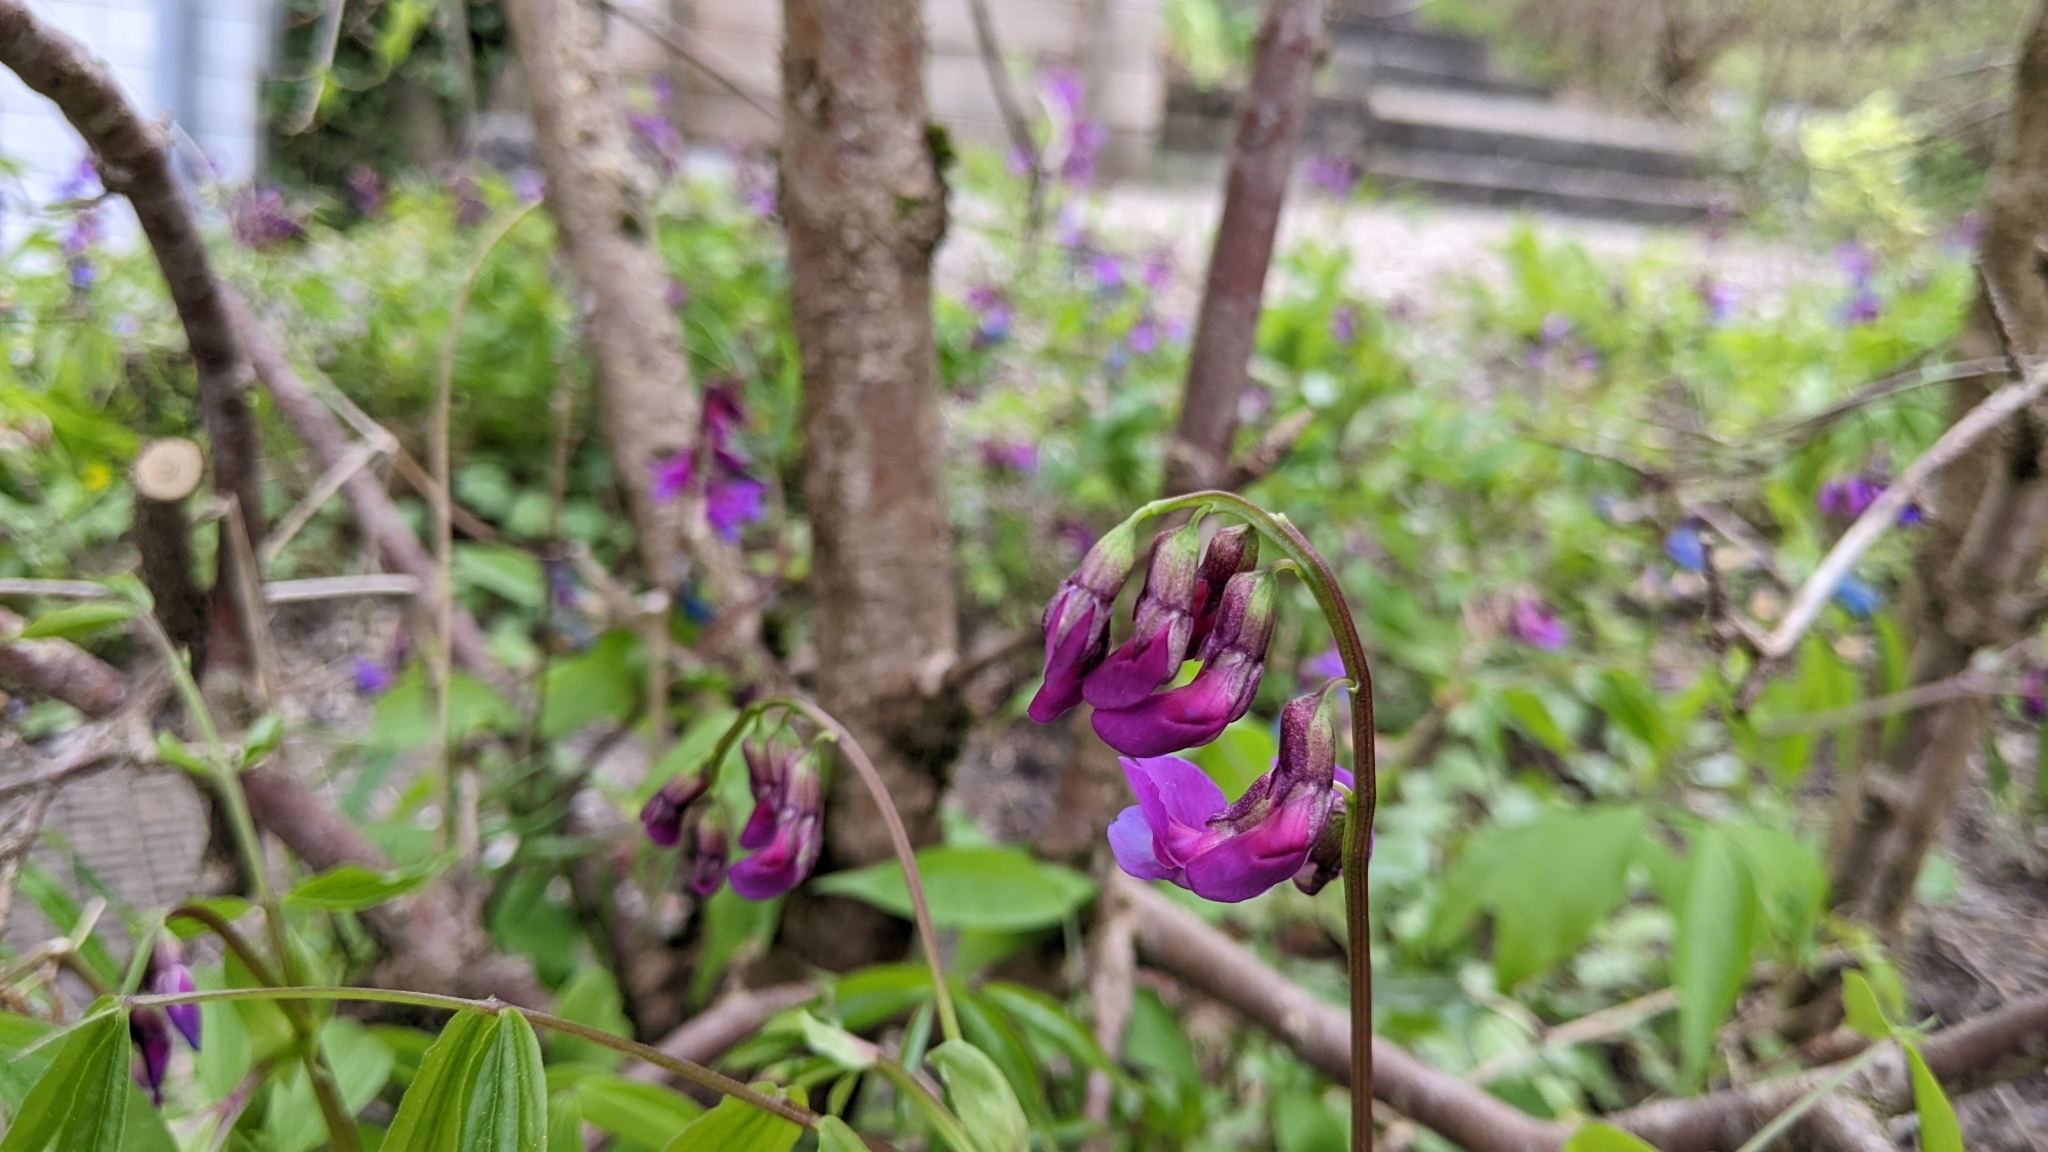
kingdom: Plantae
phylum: Tracheophyta
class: Magnoliopsida
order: Fabales
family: Fabaceae
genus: Lathyrus
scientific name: Lathyrus vernus
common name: Spring pea
